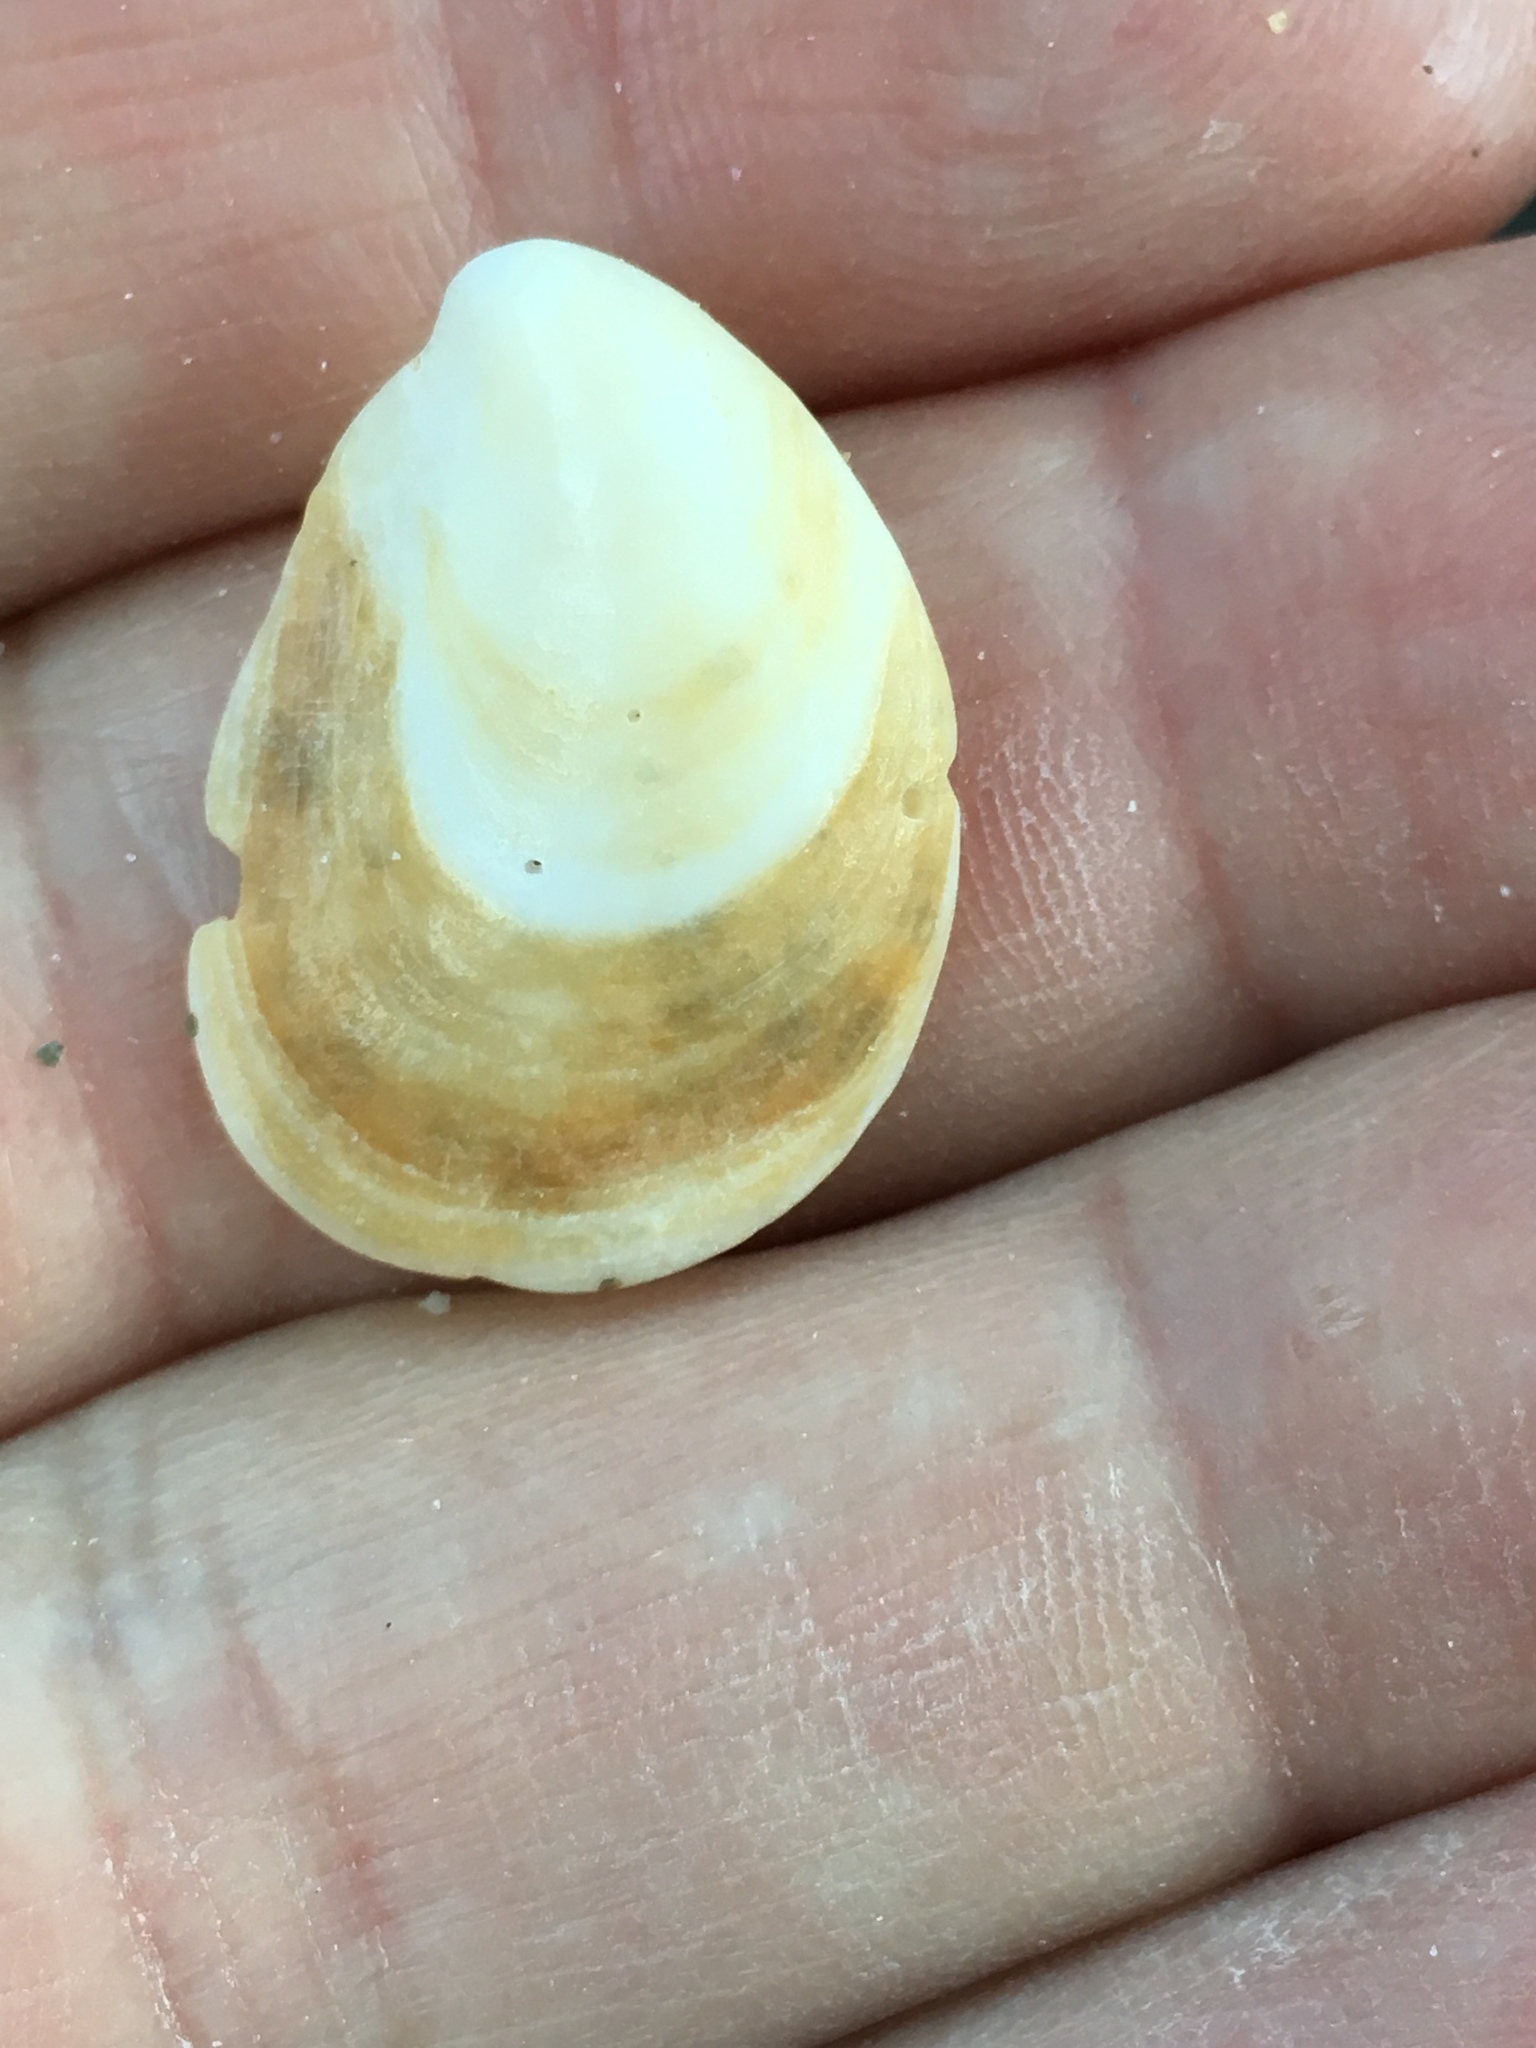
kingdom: Animalia
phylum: Mollusca
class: Gastropoda
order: Littorinimorpha
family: Calyptraeidae
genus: Crepidula
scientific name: Crepidula fornicata
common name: Slipper limpet
